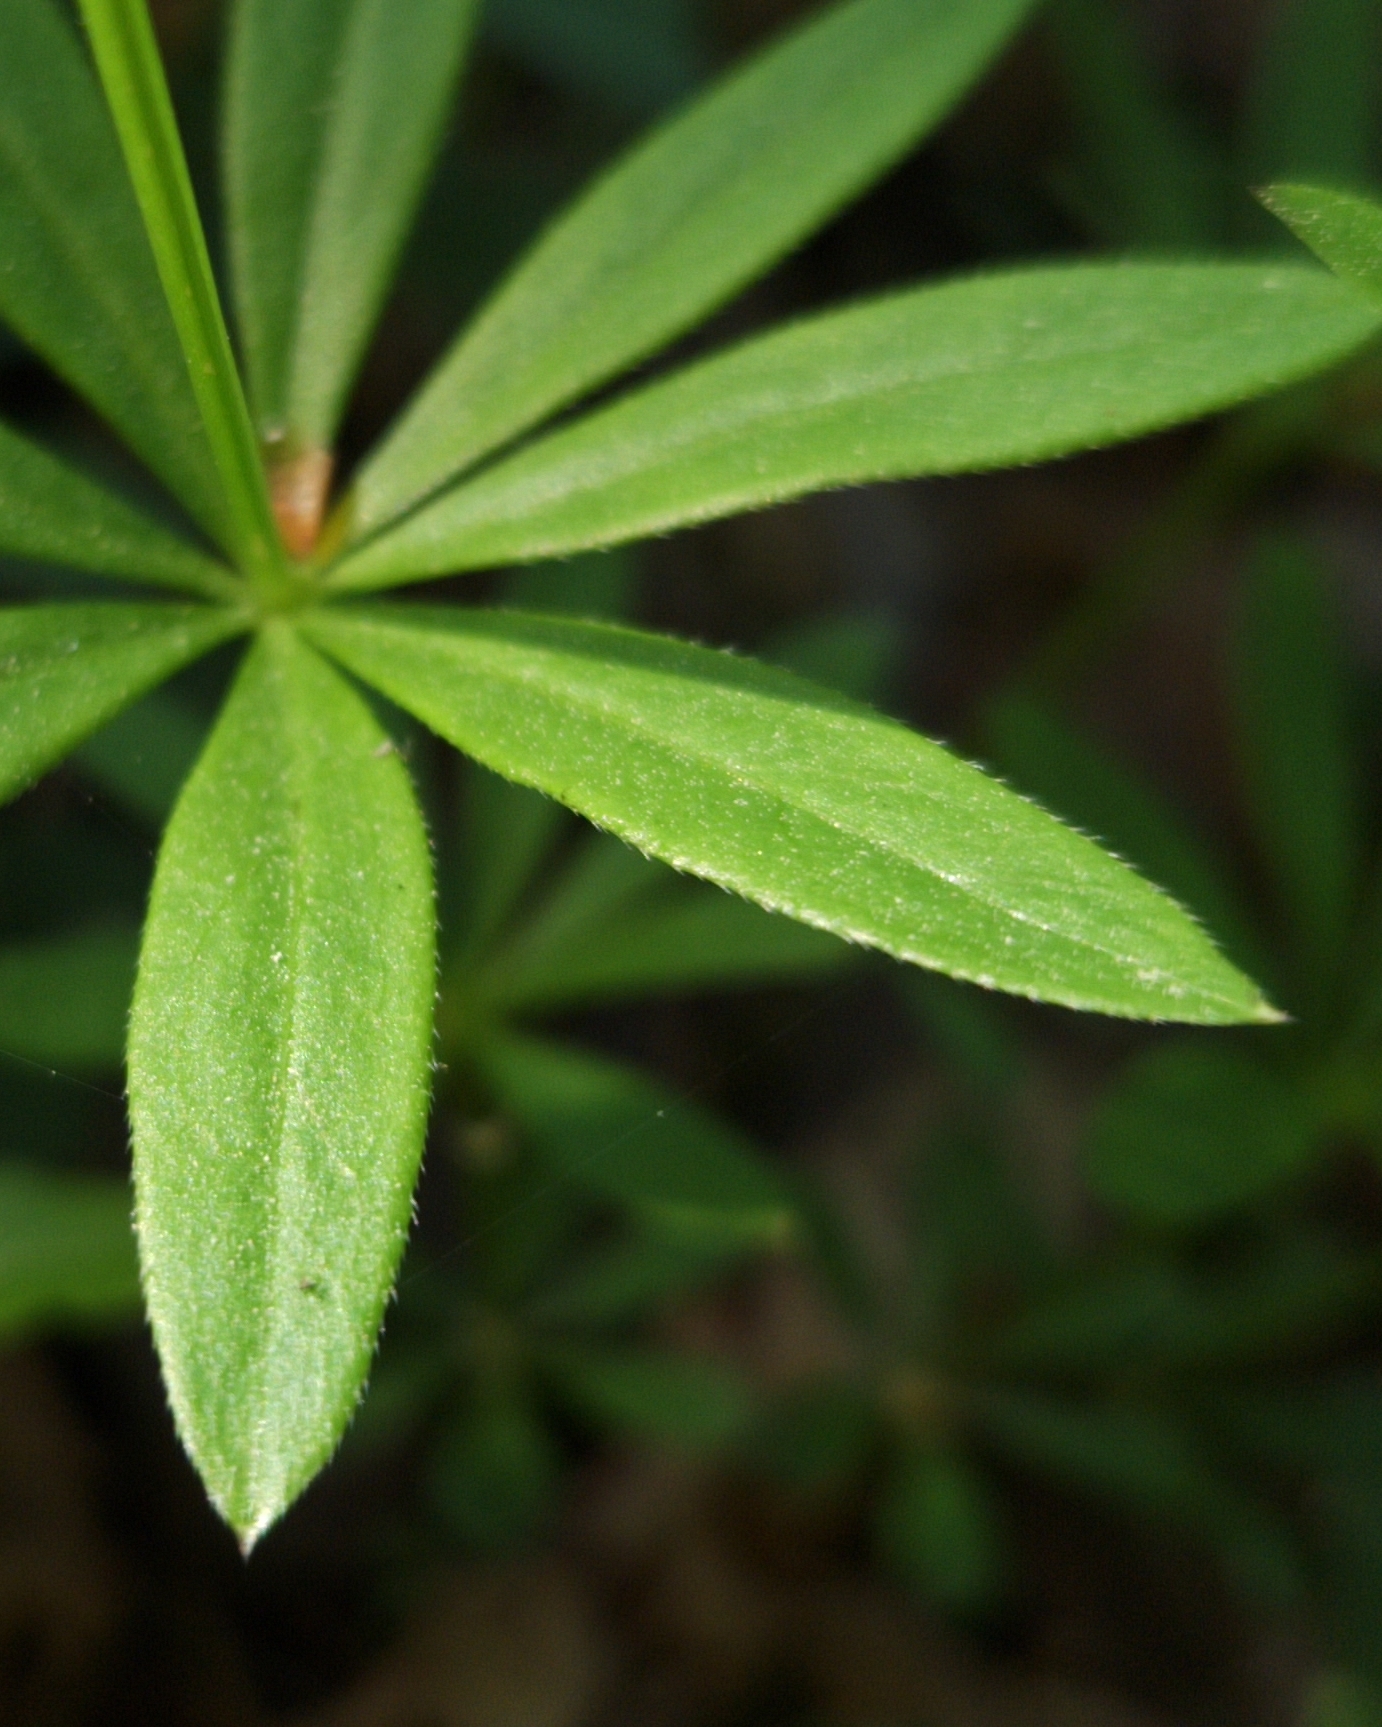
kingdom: Plantae
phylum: Tracheophyta
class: Magnoliopsida
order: Gentianales
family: Rubiaceae
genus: Galium
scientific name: Galium odoratum
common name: Sweet woodruff
